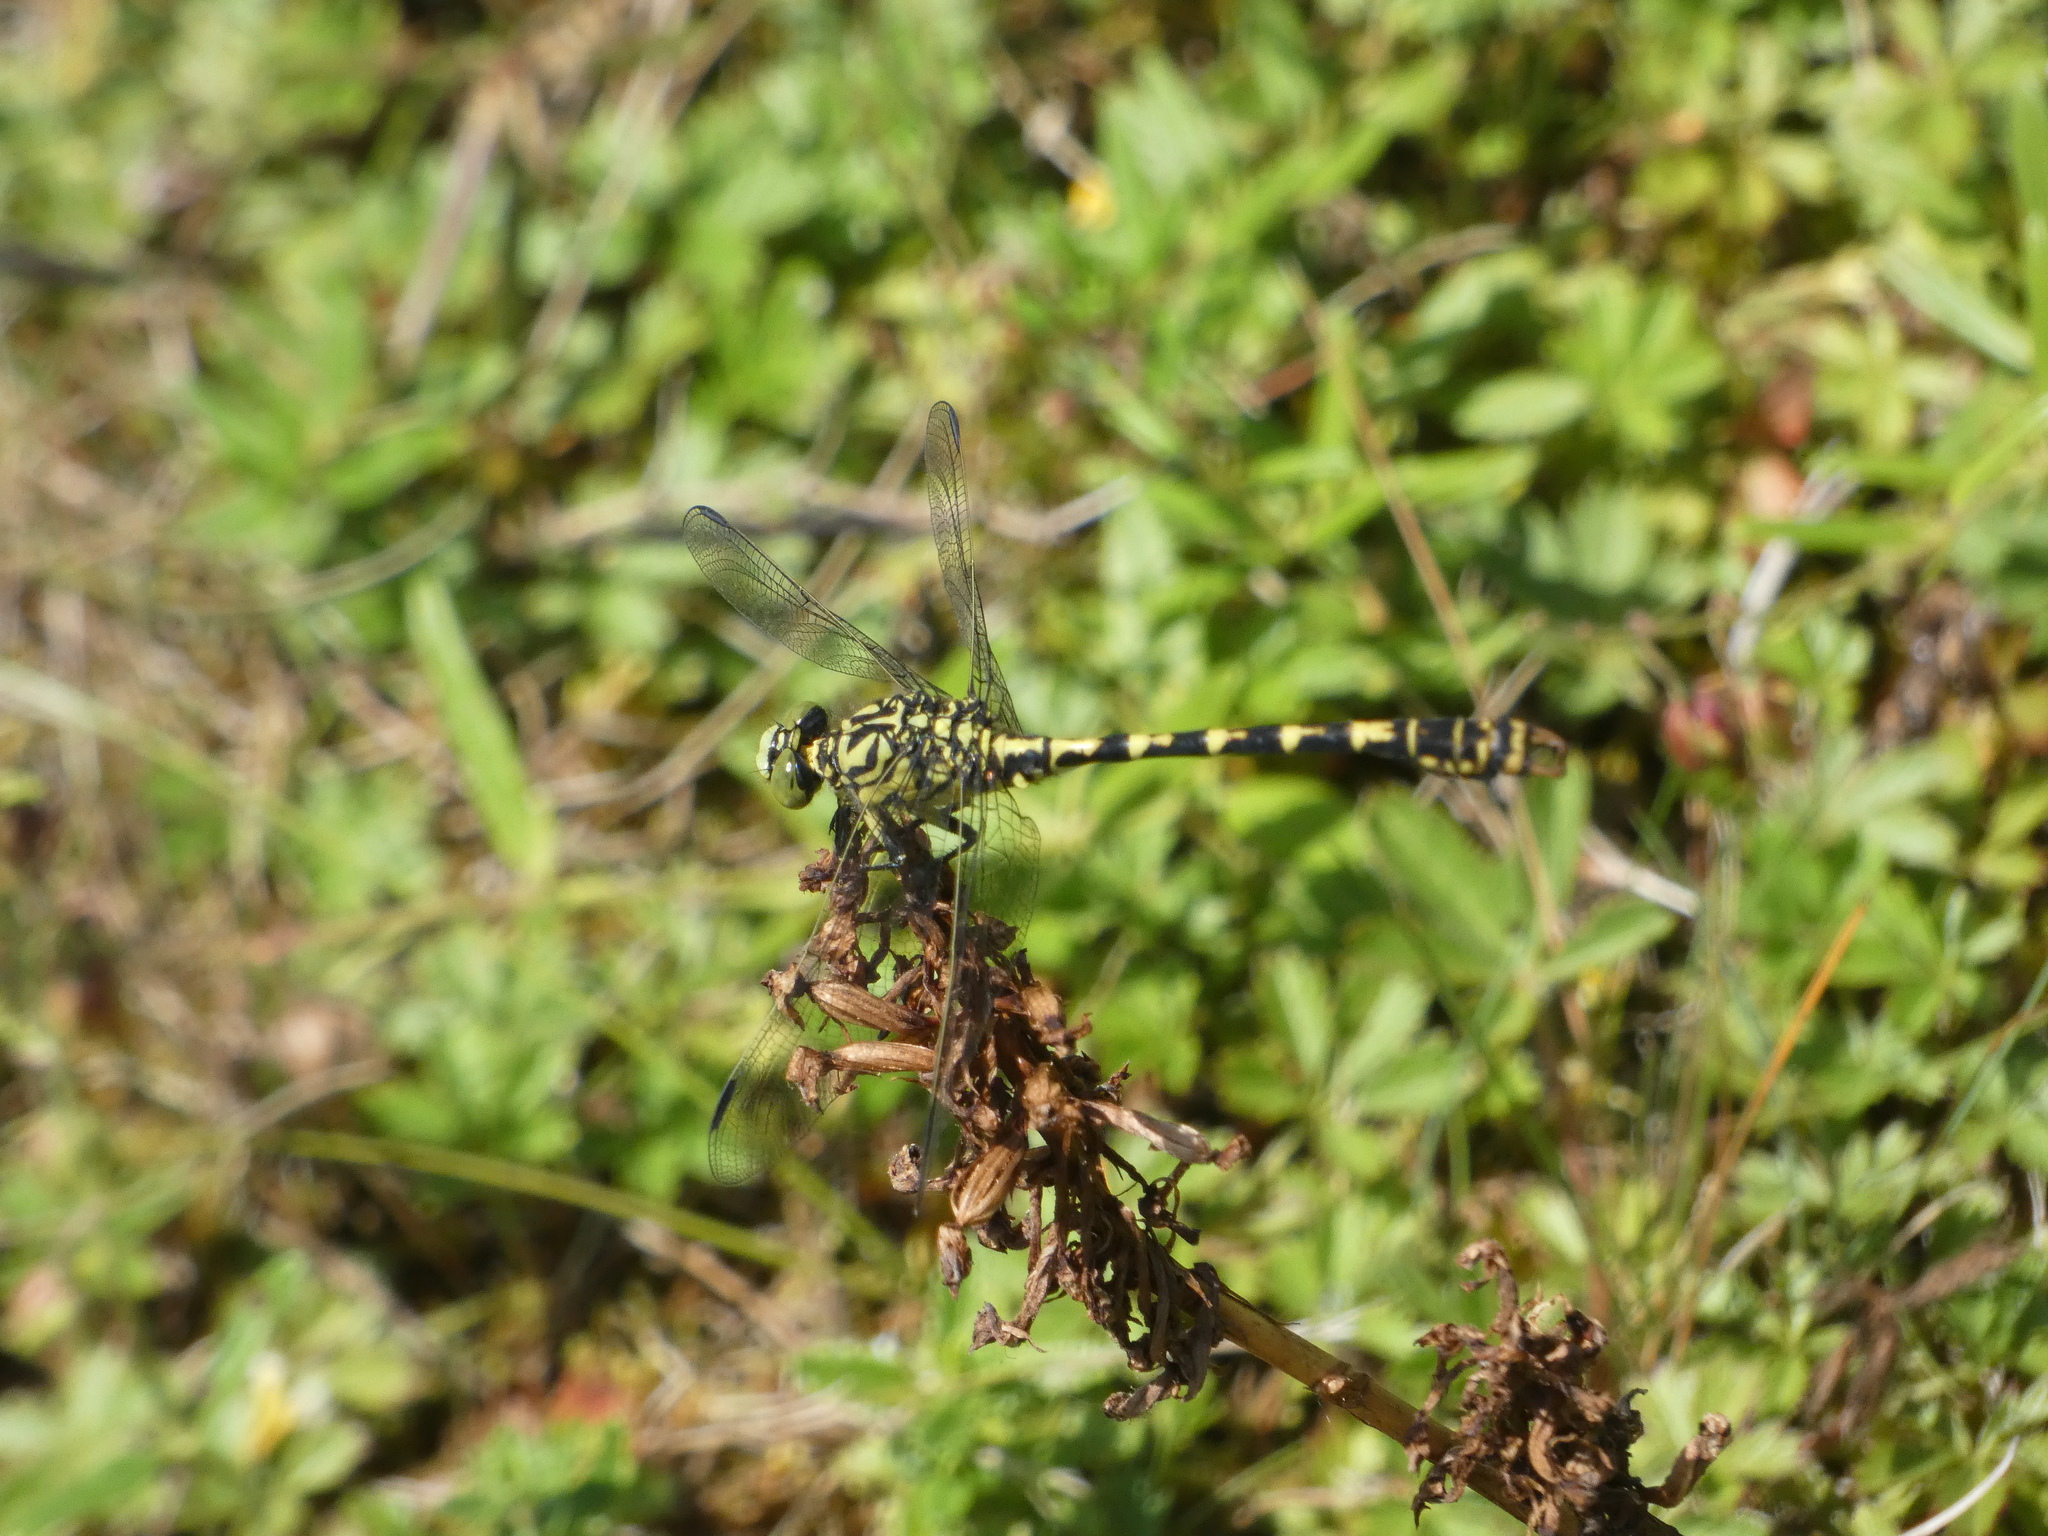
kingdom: Animalia
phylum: Arthropoda
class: Insecta
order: Odonata
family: Gomphidae
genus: Onychogomphus
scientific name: Onychogomphus forcipatus
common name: Small pincertail
